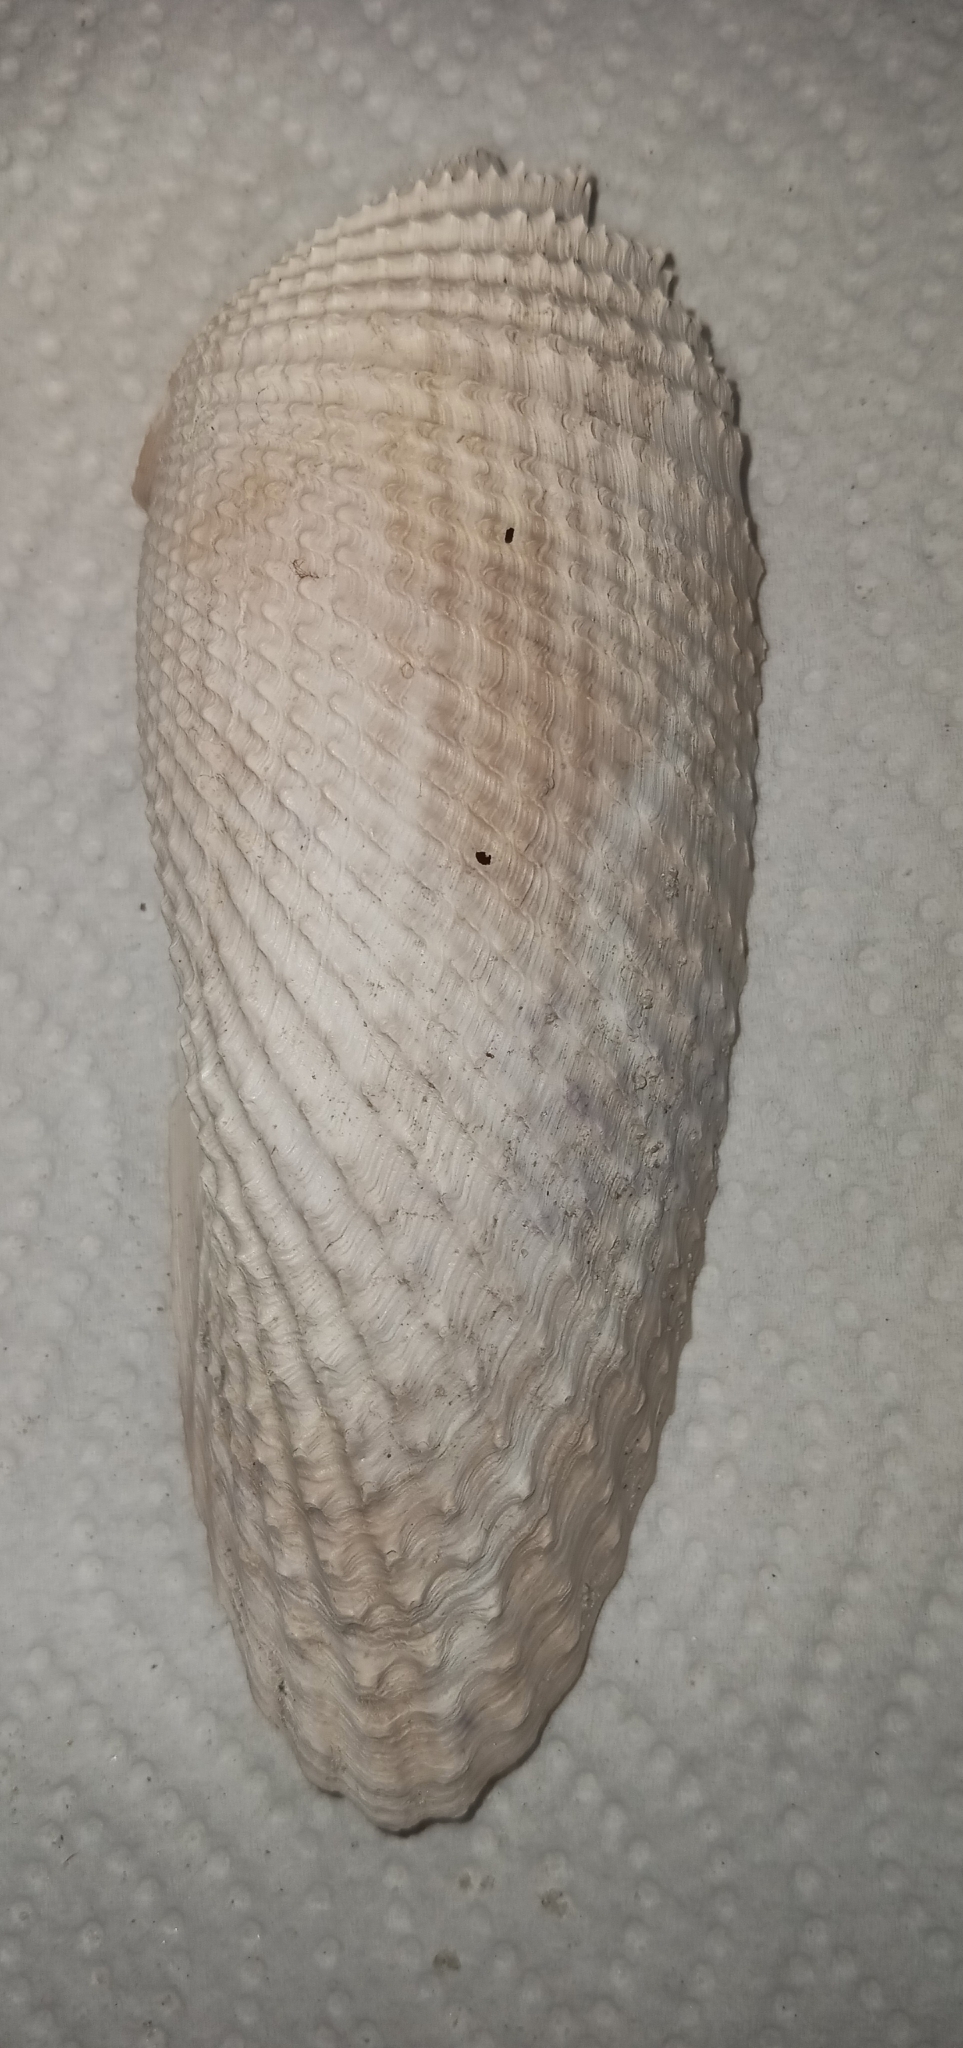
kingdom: Animalia
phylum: Mollusca
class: Bivalvia
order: Myida
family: Pholadidae
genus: Cyrtopleura
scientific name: Cyrtopleura costata
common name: Angel wing
